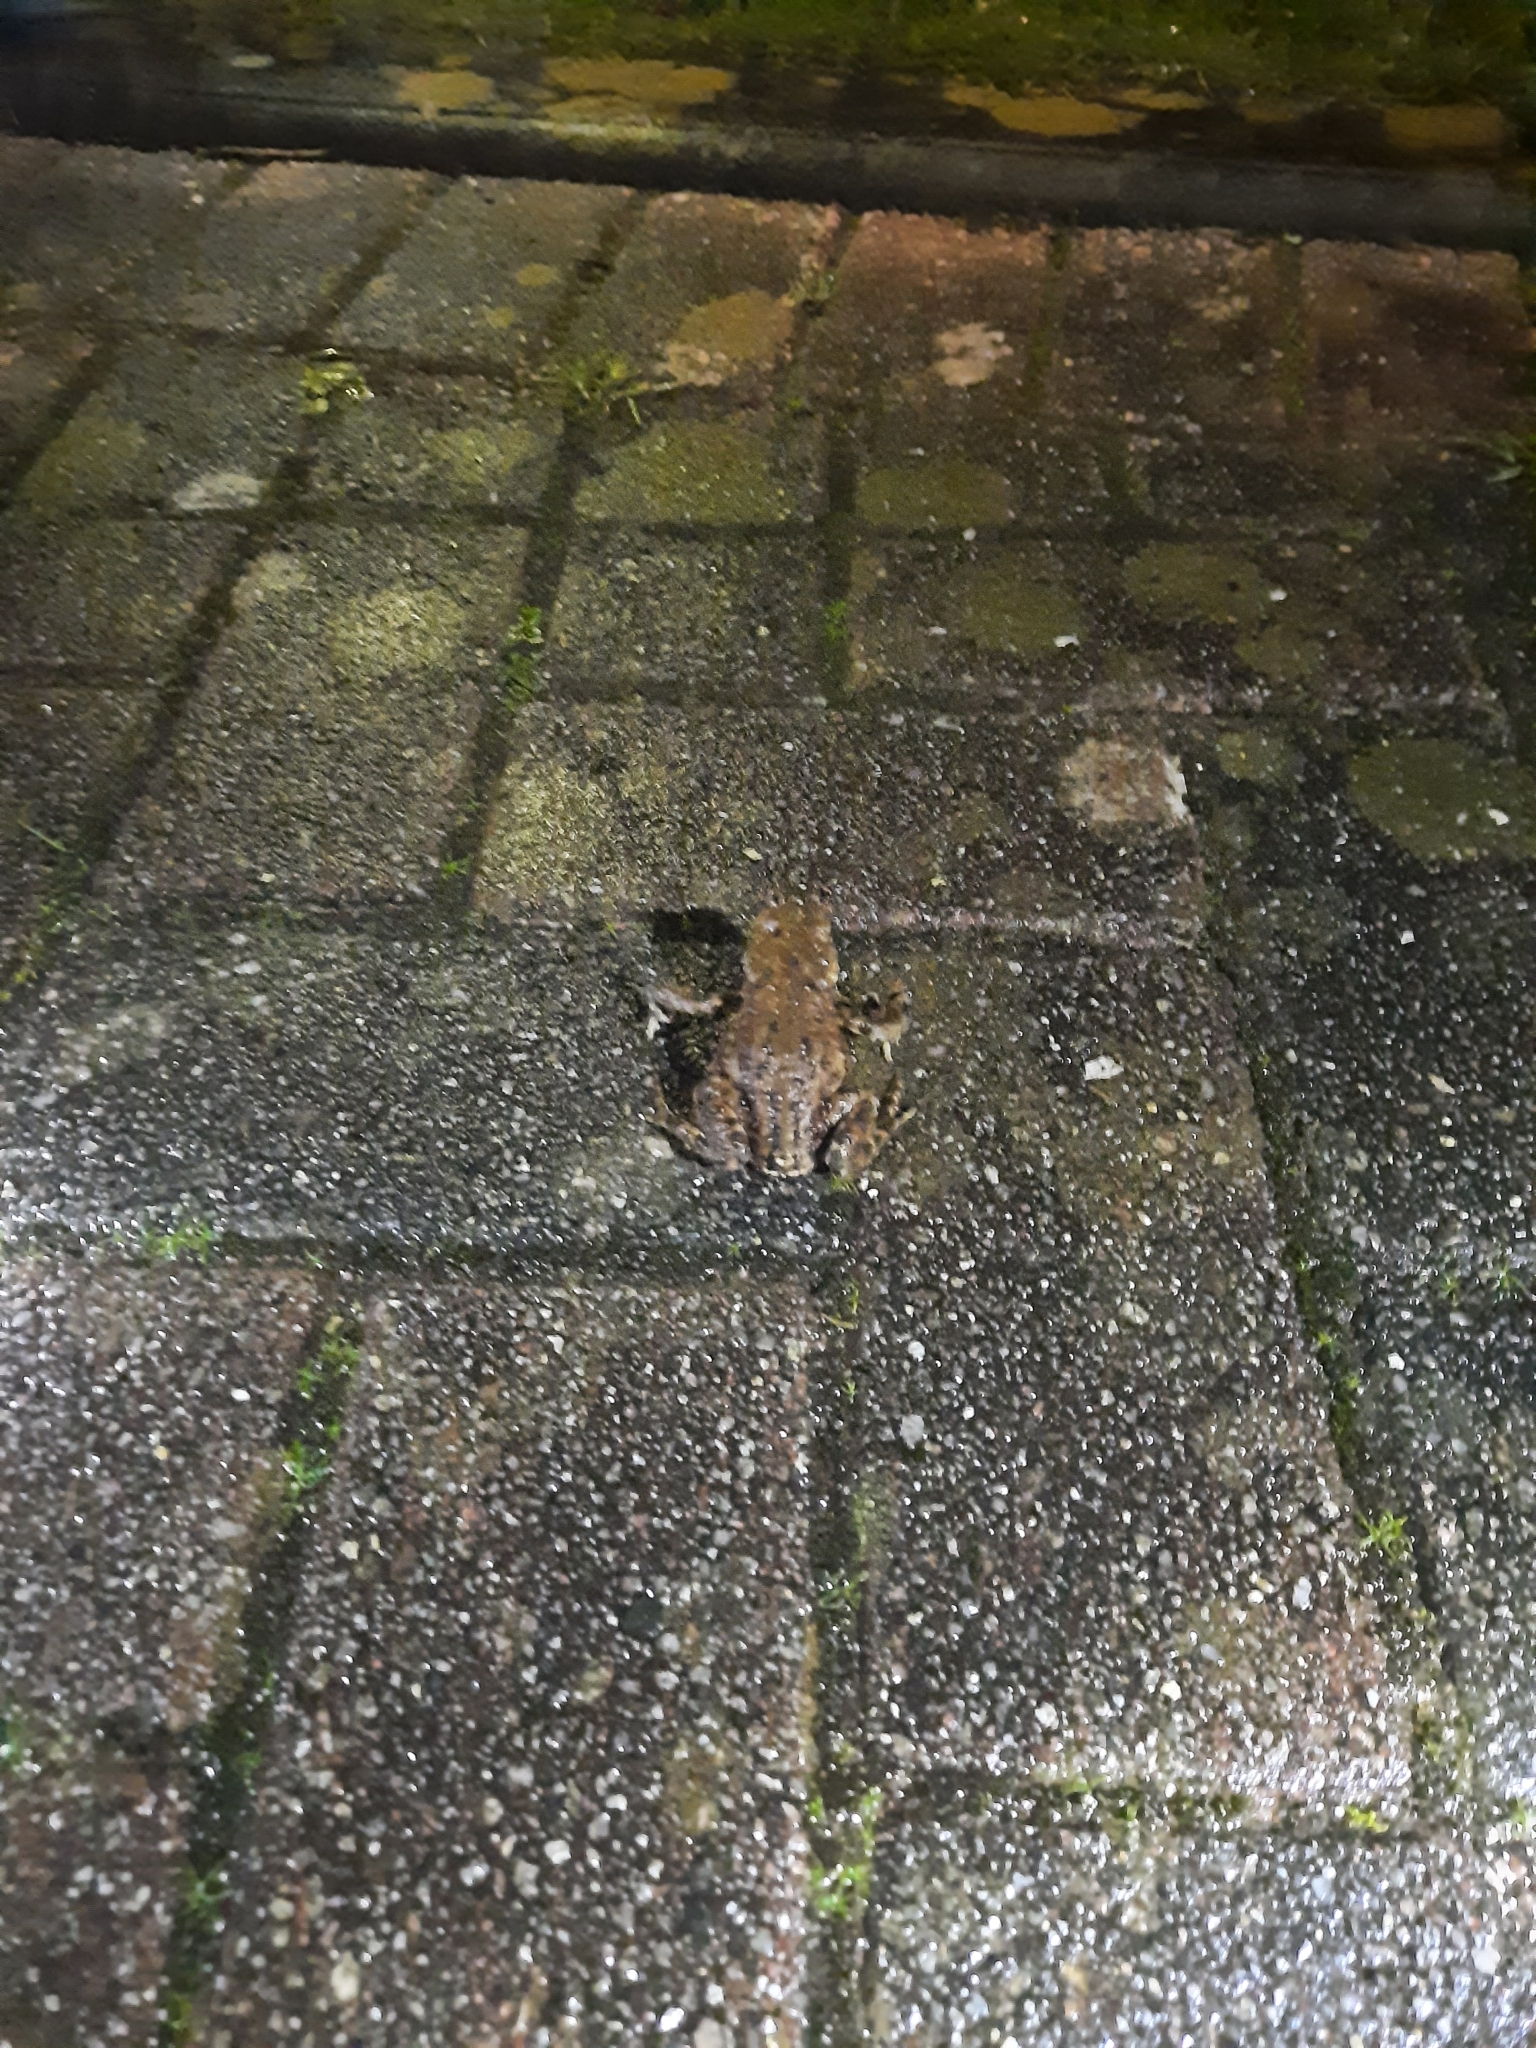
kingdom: Animalia
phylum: Chordata
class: Amphibia
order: Anura
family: Bufonidae
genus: Bufo
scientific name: Bufo bufo
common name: Common toad
